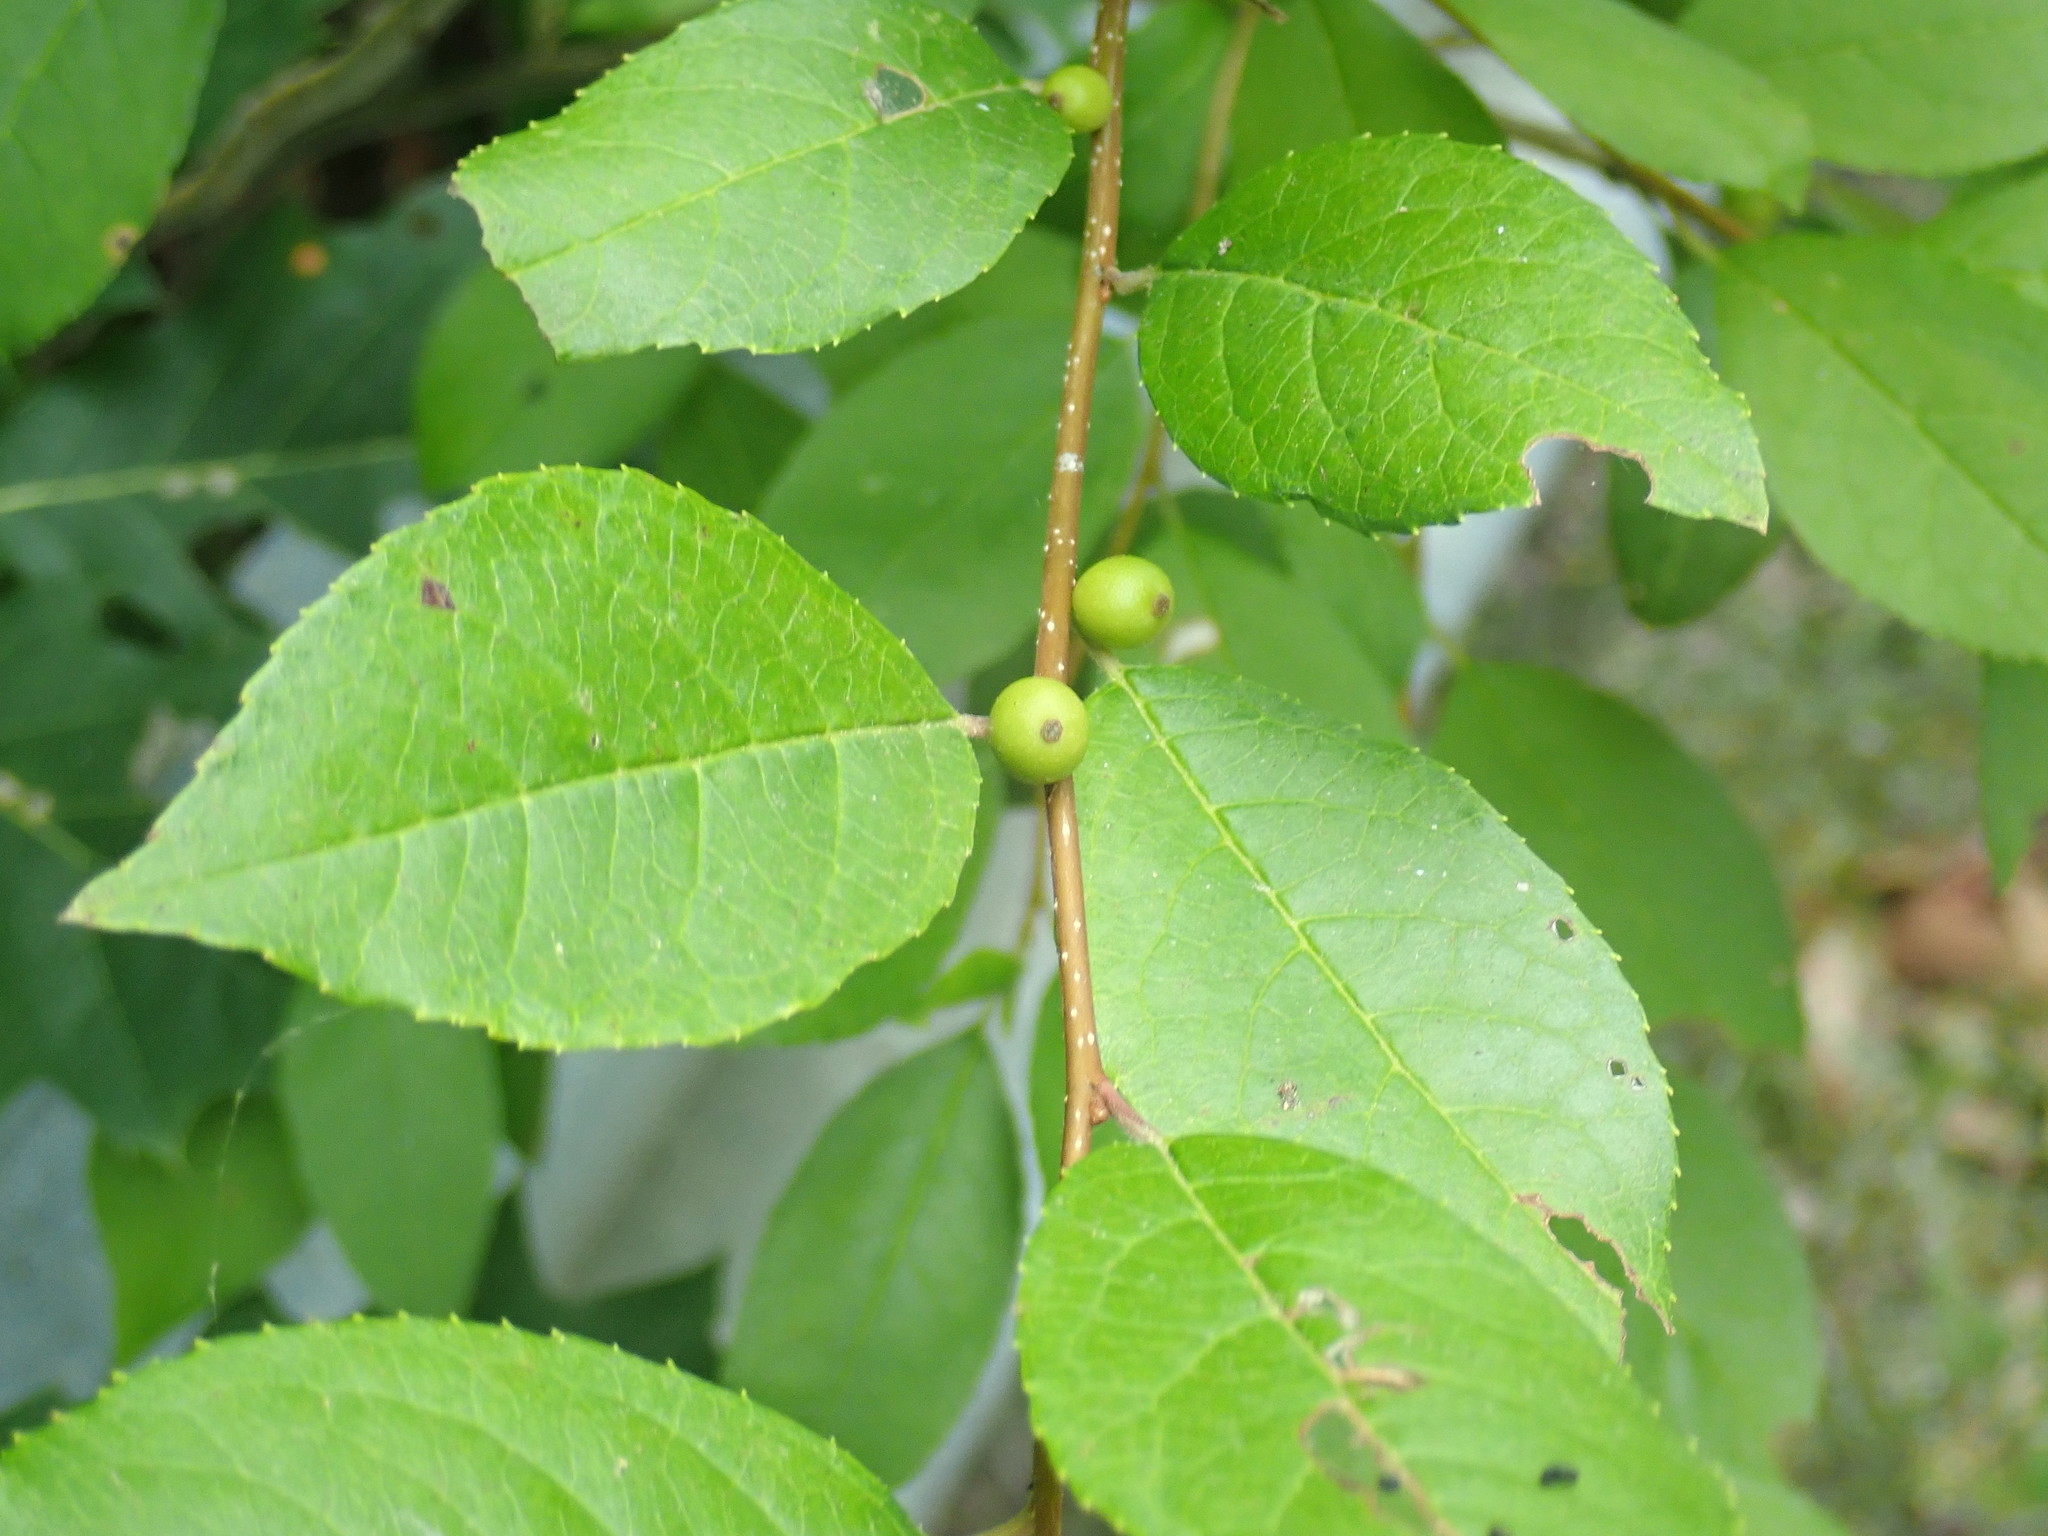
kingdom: Plantae
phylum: Tracheophyta
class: Magnoliopsida
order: Aquifoliales
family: Aquifoliaceae
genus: Ilex
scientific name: Ilex verticillata
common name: Virginia winterberry
